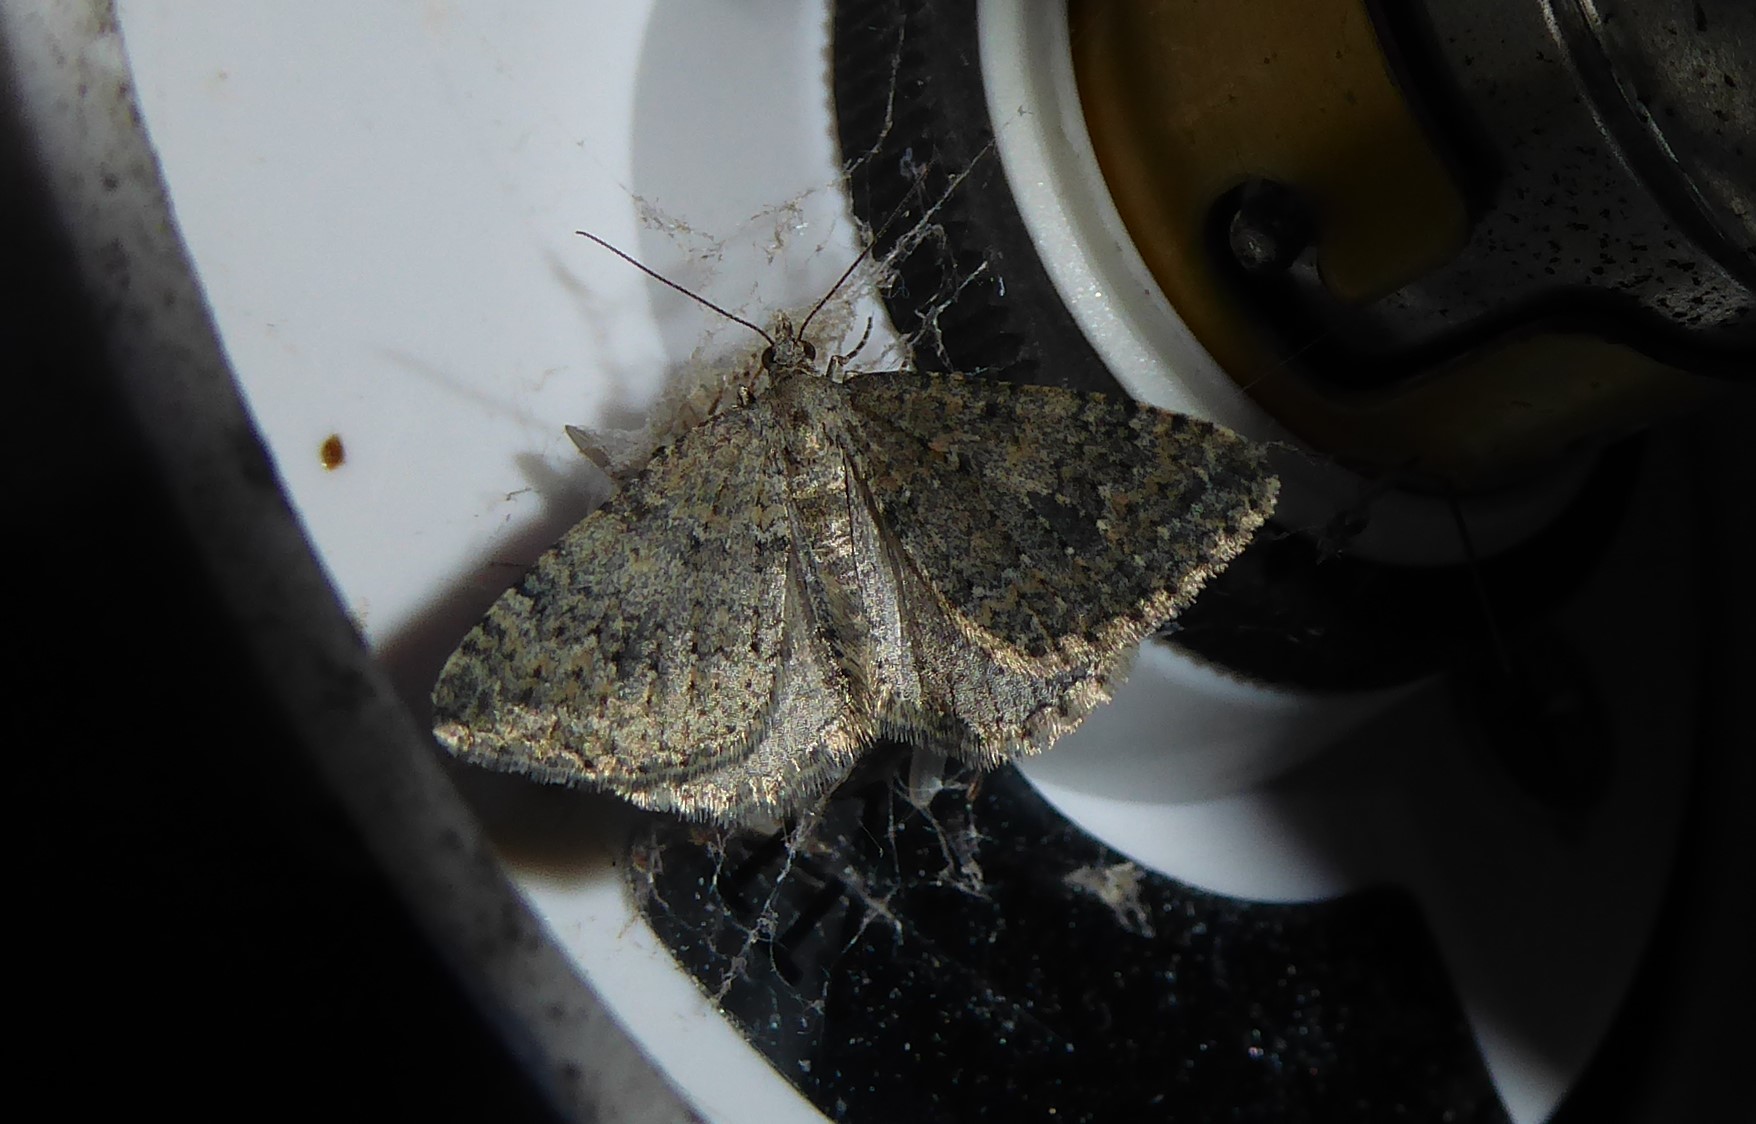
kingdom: Animalia
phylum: Arthropoda
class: Insecta
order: Lepidoptera
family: Geometridae
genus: Helastia
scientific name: Helastia corcularia
